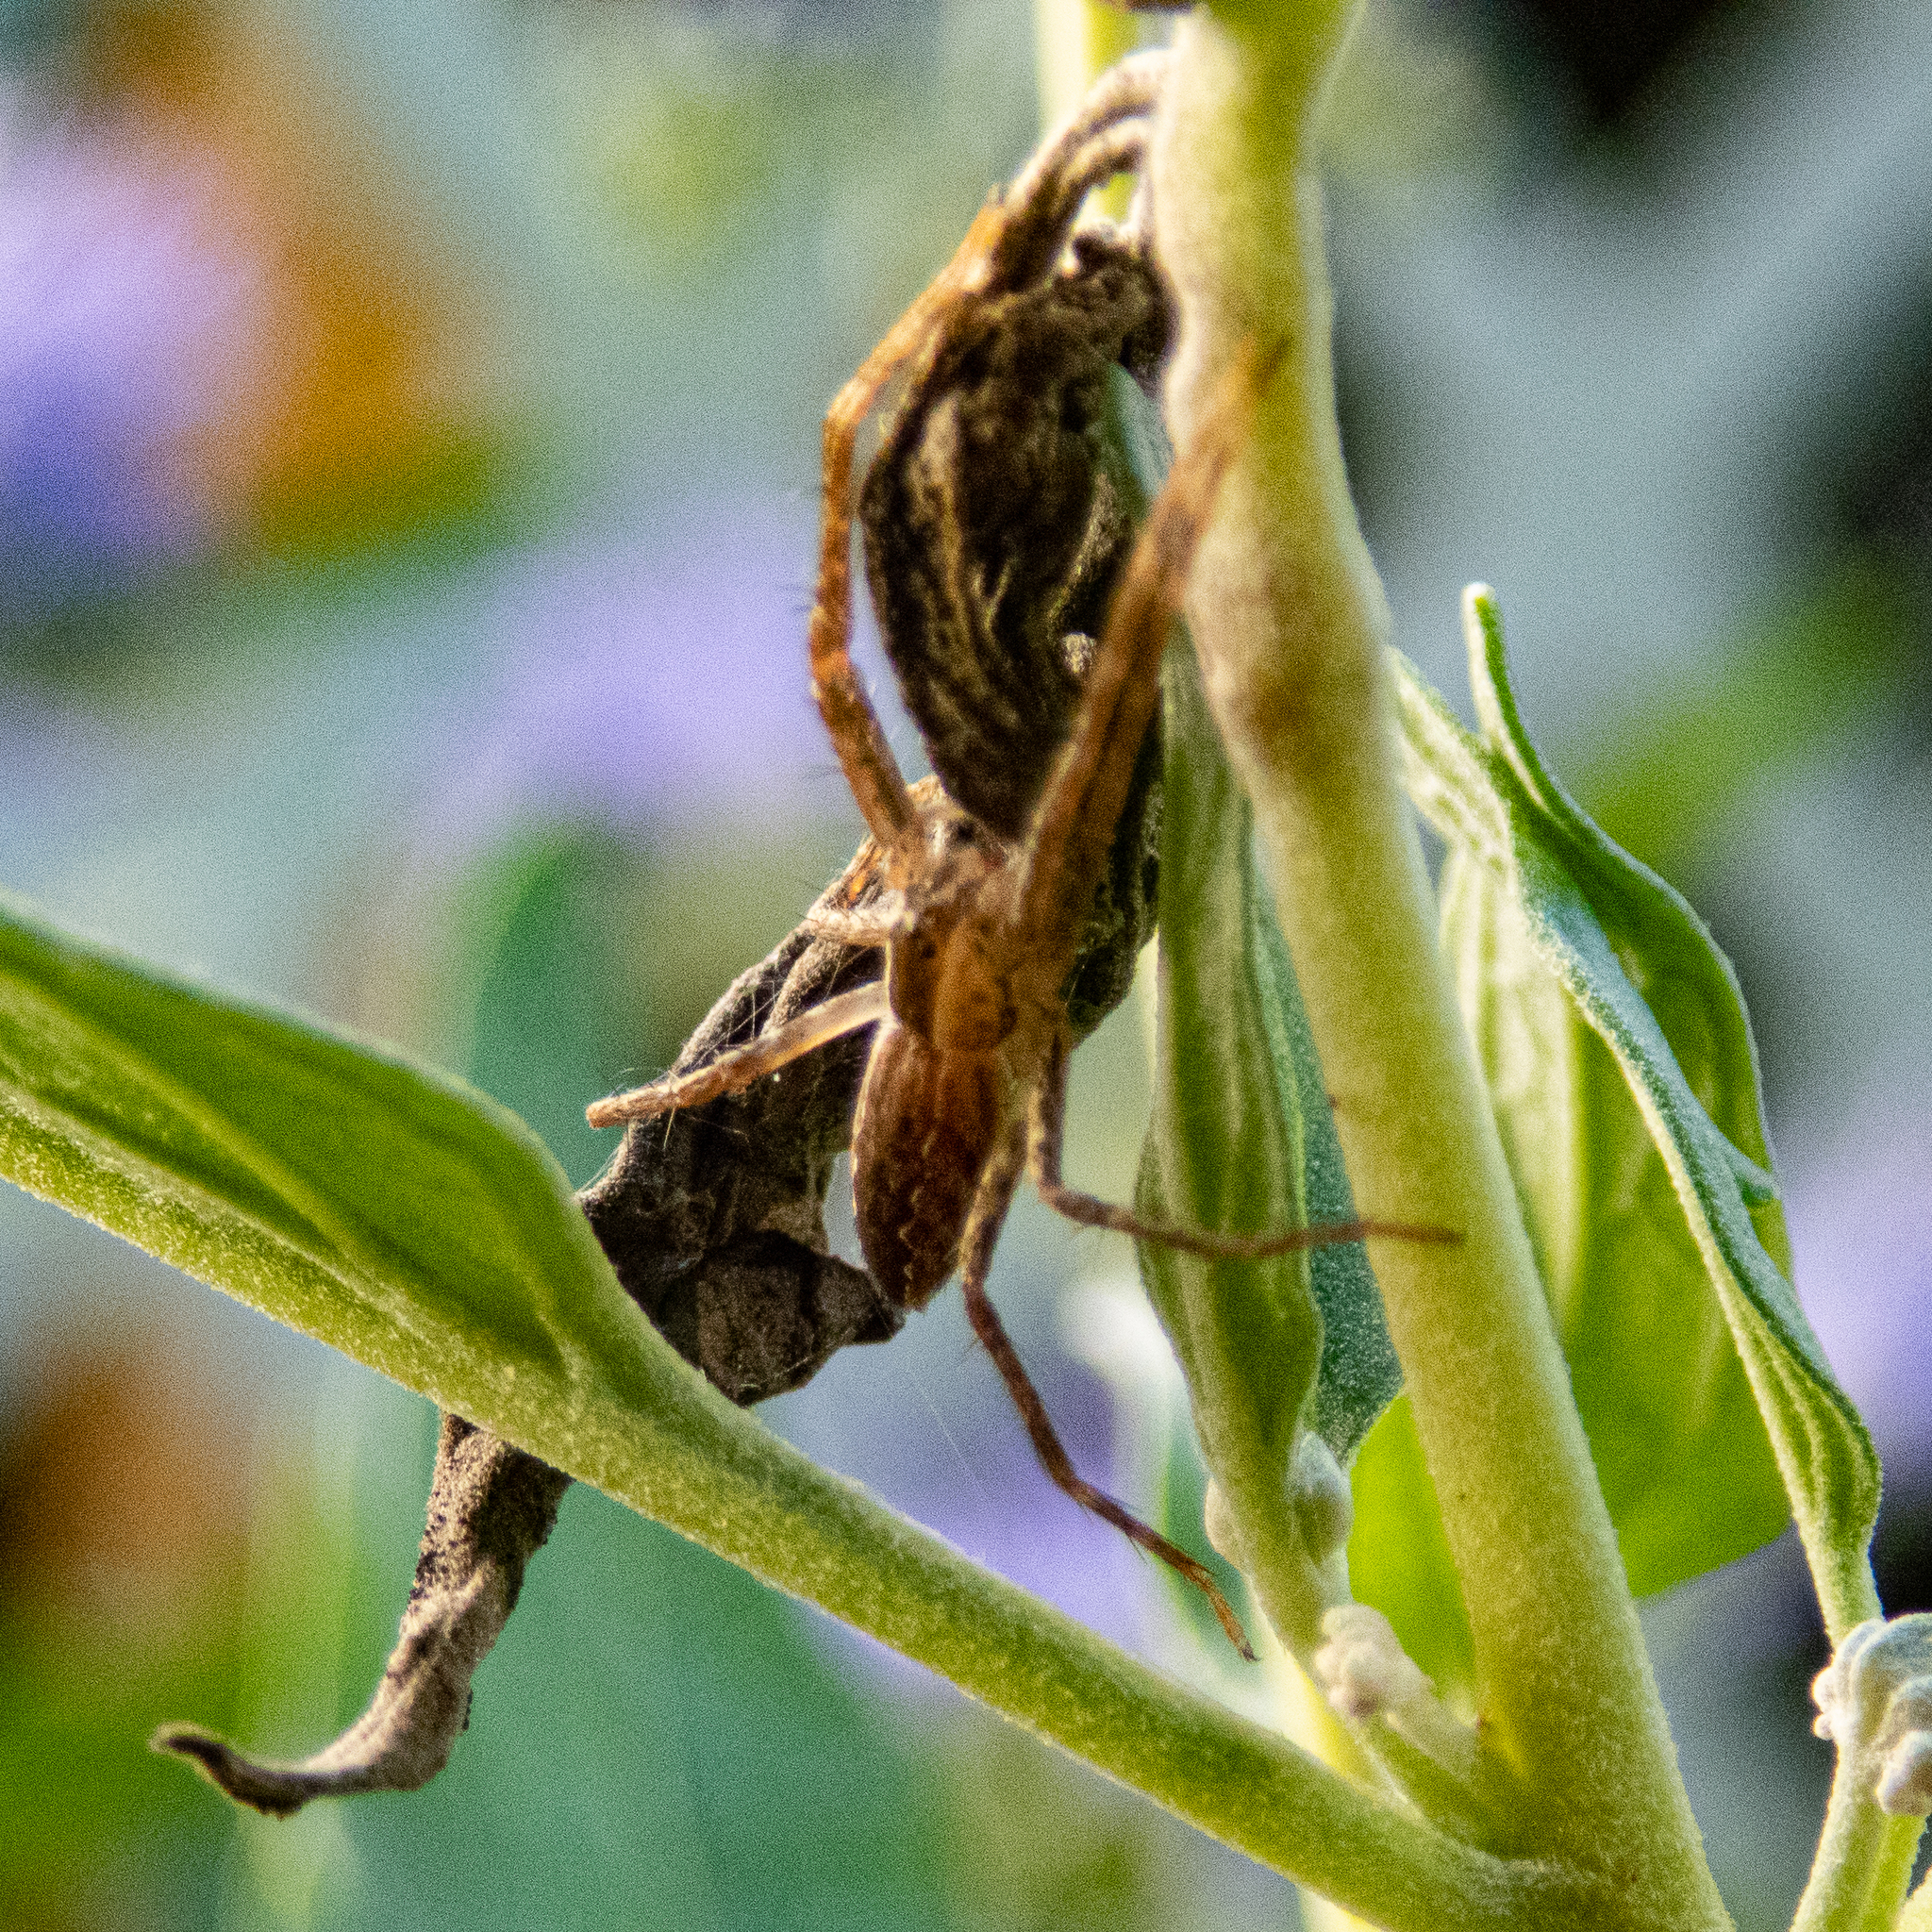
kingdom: Animalia
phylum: Arthropoda
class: Arachnida
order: Araneae
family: Pisauridae
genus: Pisaurina
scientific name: Pisaurina mira
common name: American nursery web spider
